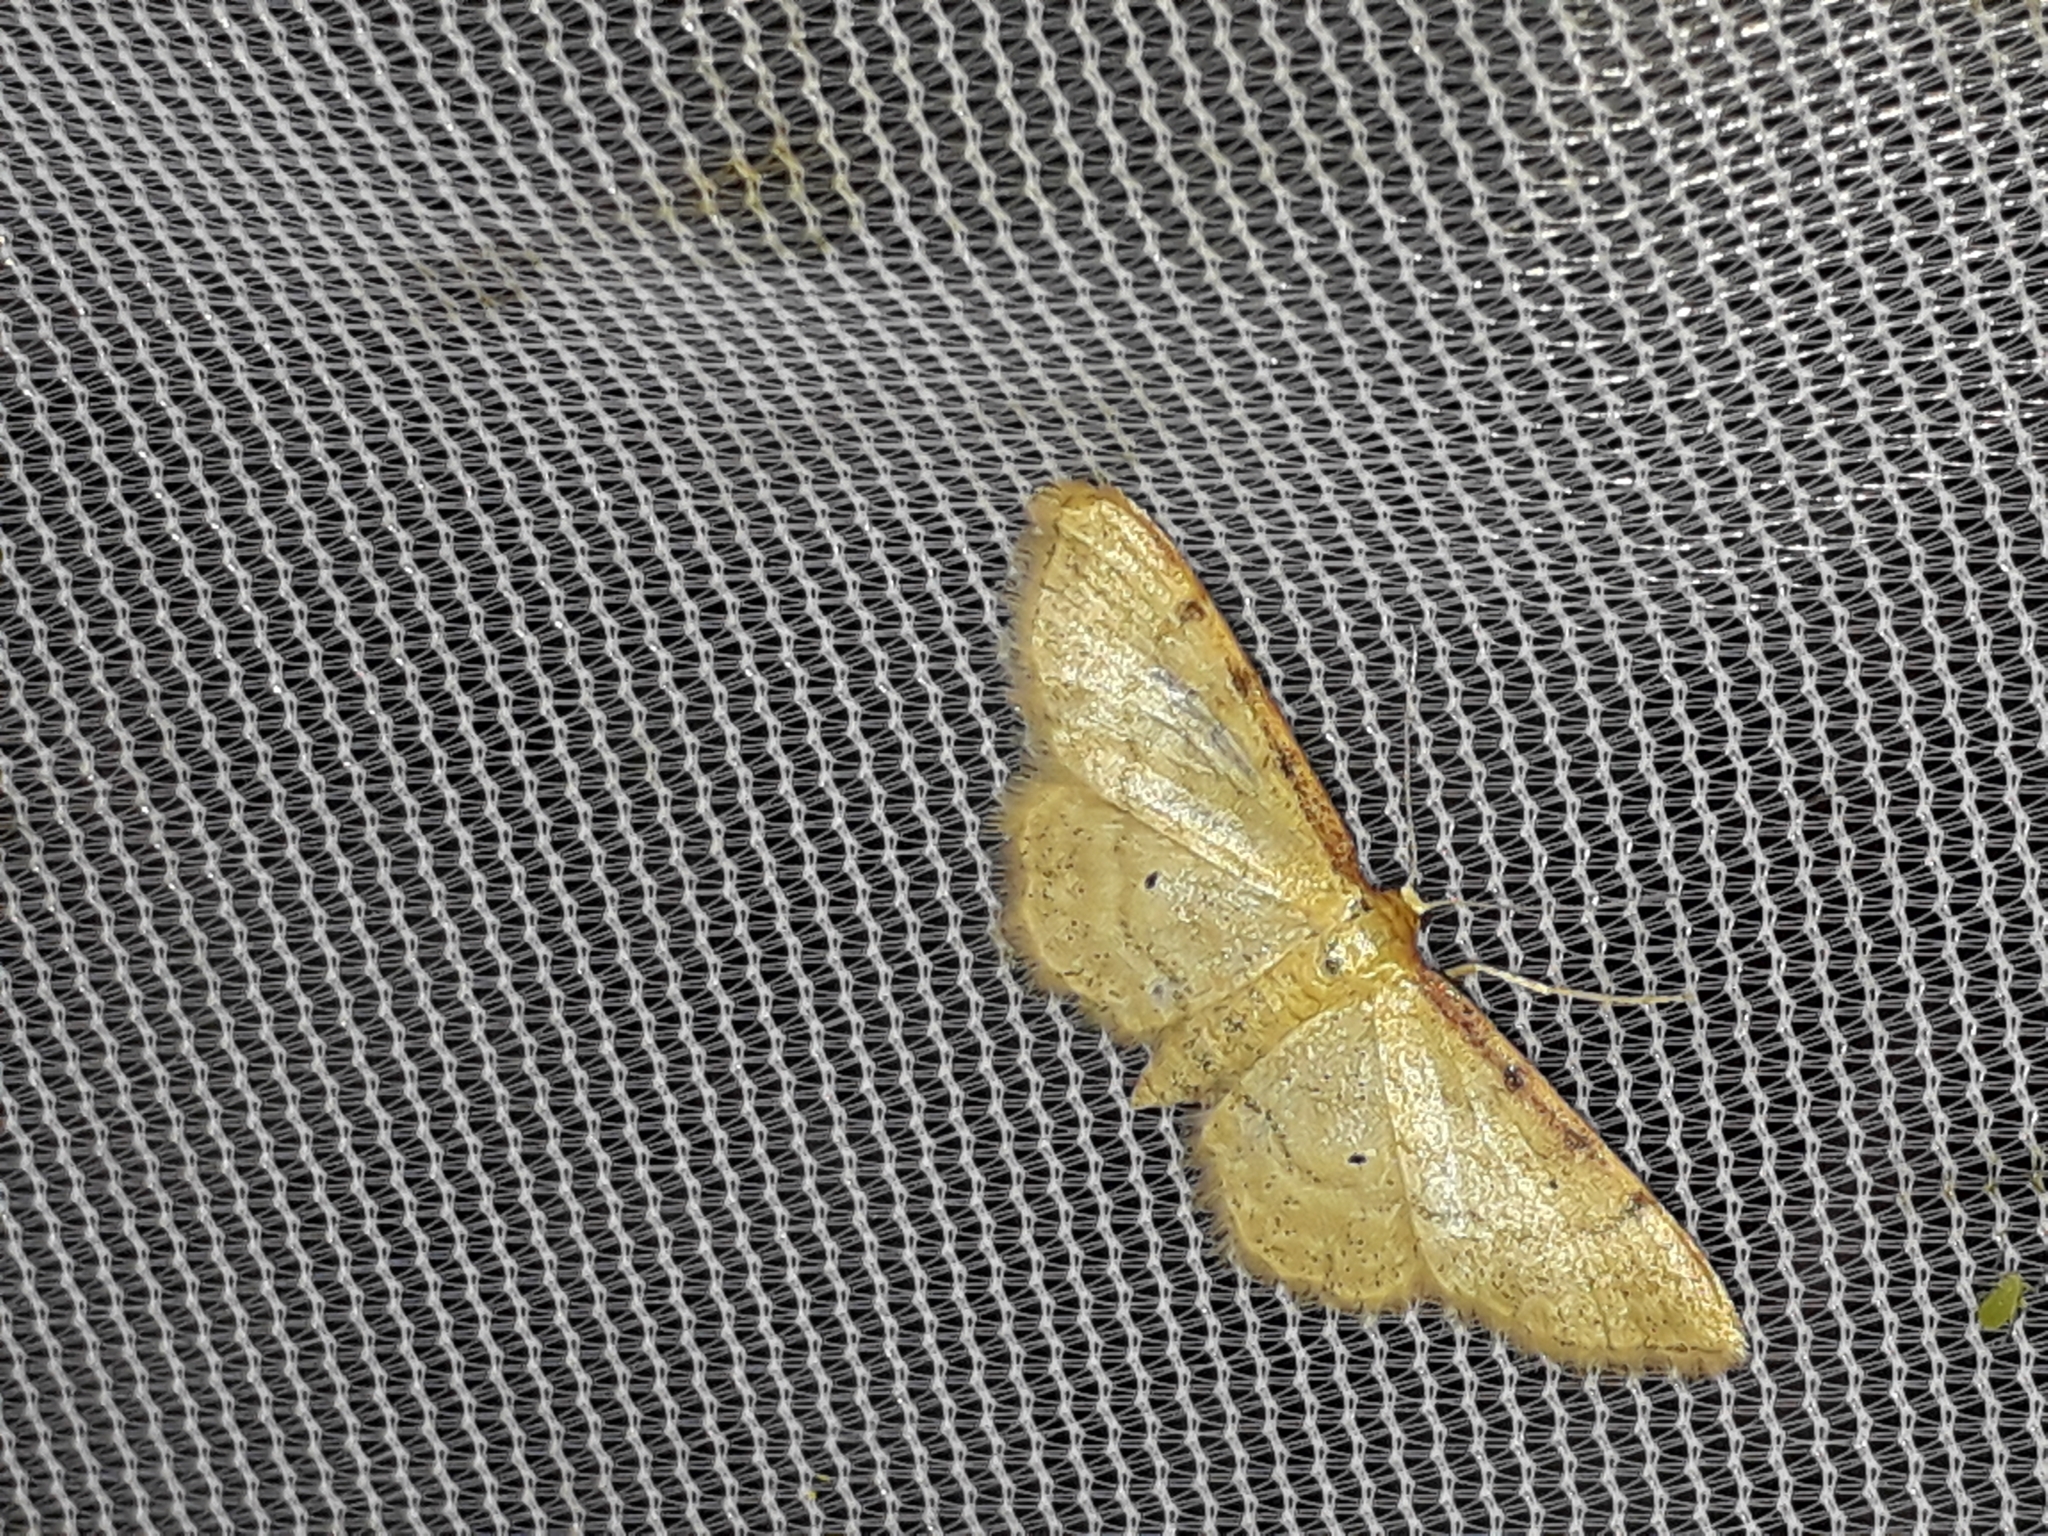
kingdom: Animalia
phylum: Arthropoda
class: Insecta
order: Lepidoptera
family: Geometridae
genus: Idaea
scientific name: Idaea fuscovenosa
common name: Dwarf cream wave
